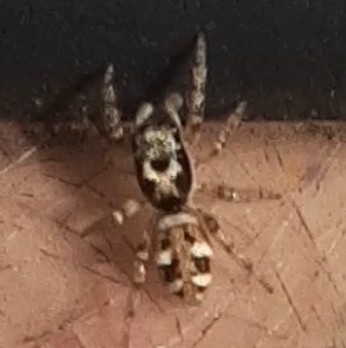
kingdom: Animalia
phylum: Arthropoda
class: Arachnida
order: Araneae
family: Salticidae
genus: Salticus
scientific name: Salticus scenicus
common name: Zebra jumper
